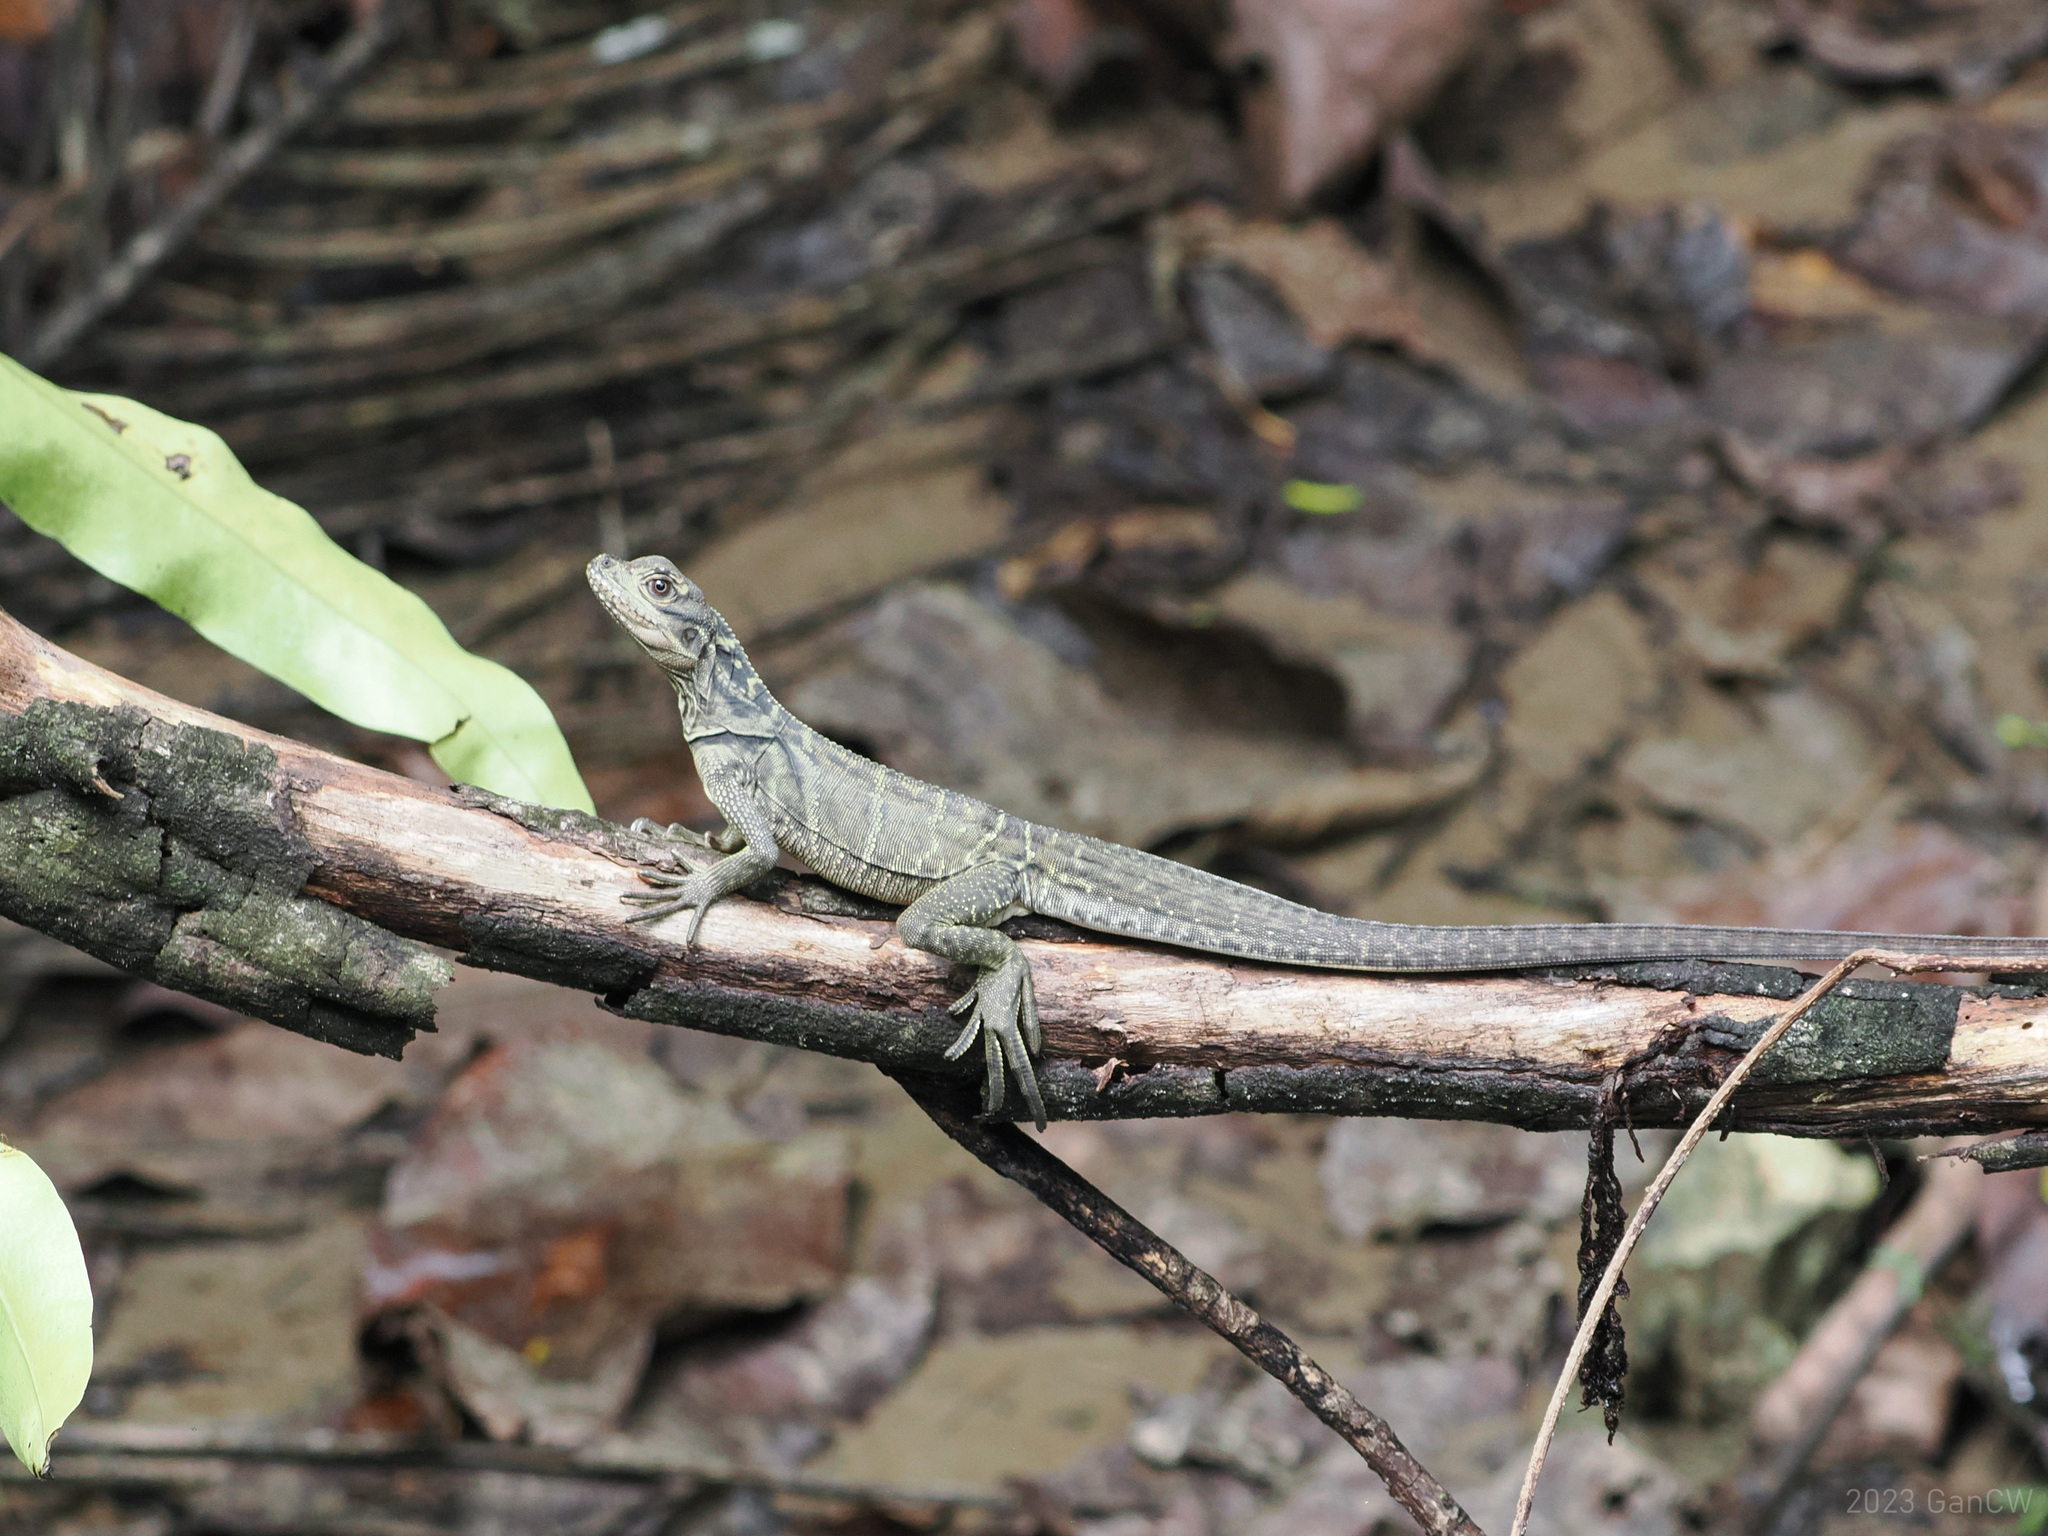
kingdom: Animalia
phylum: Chordata
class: Squamata
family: Agamidae
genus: Hydrosaurus
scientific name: Hydrosaurus celebensis
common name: (sulawesi) sailfin lizard
